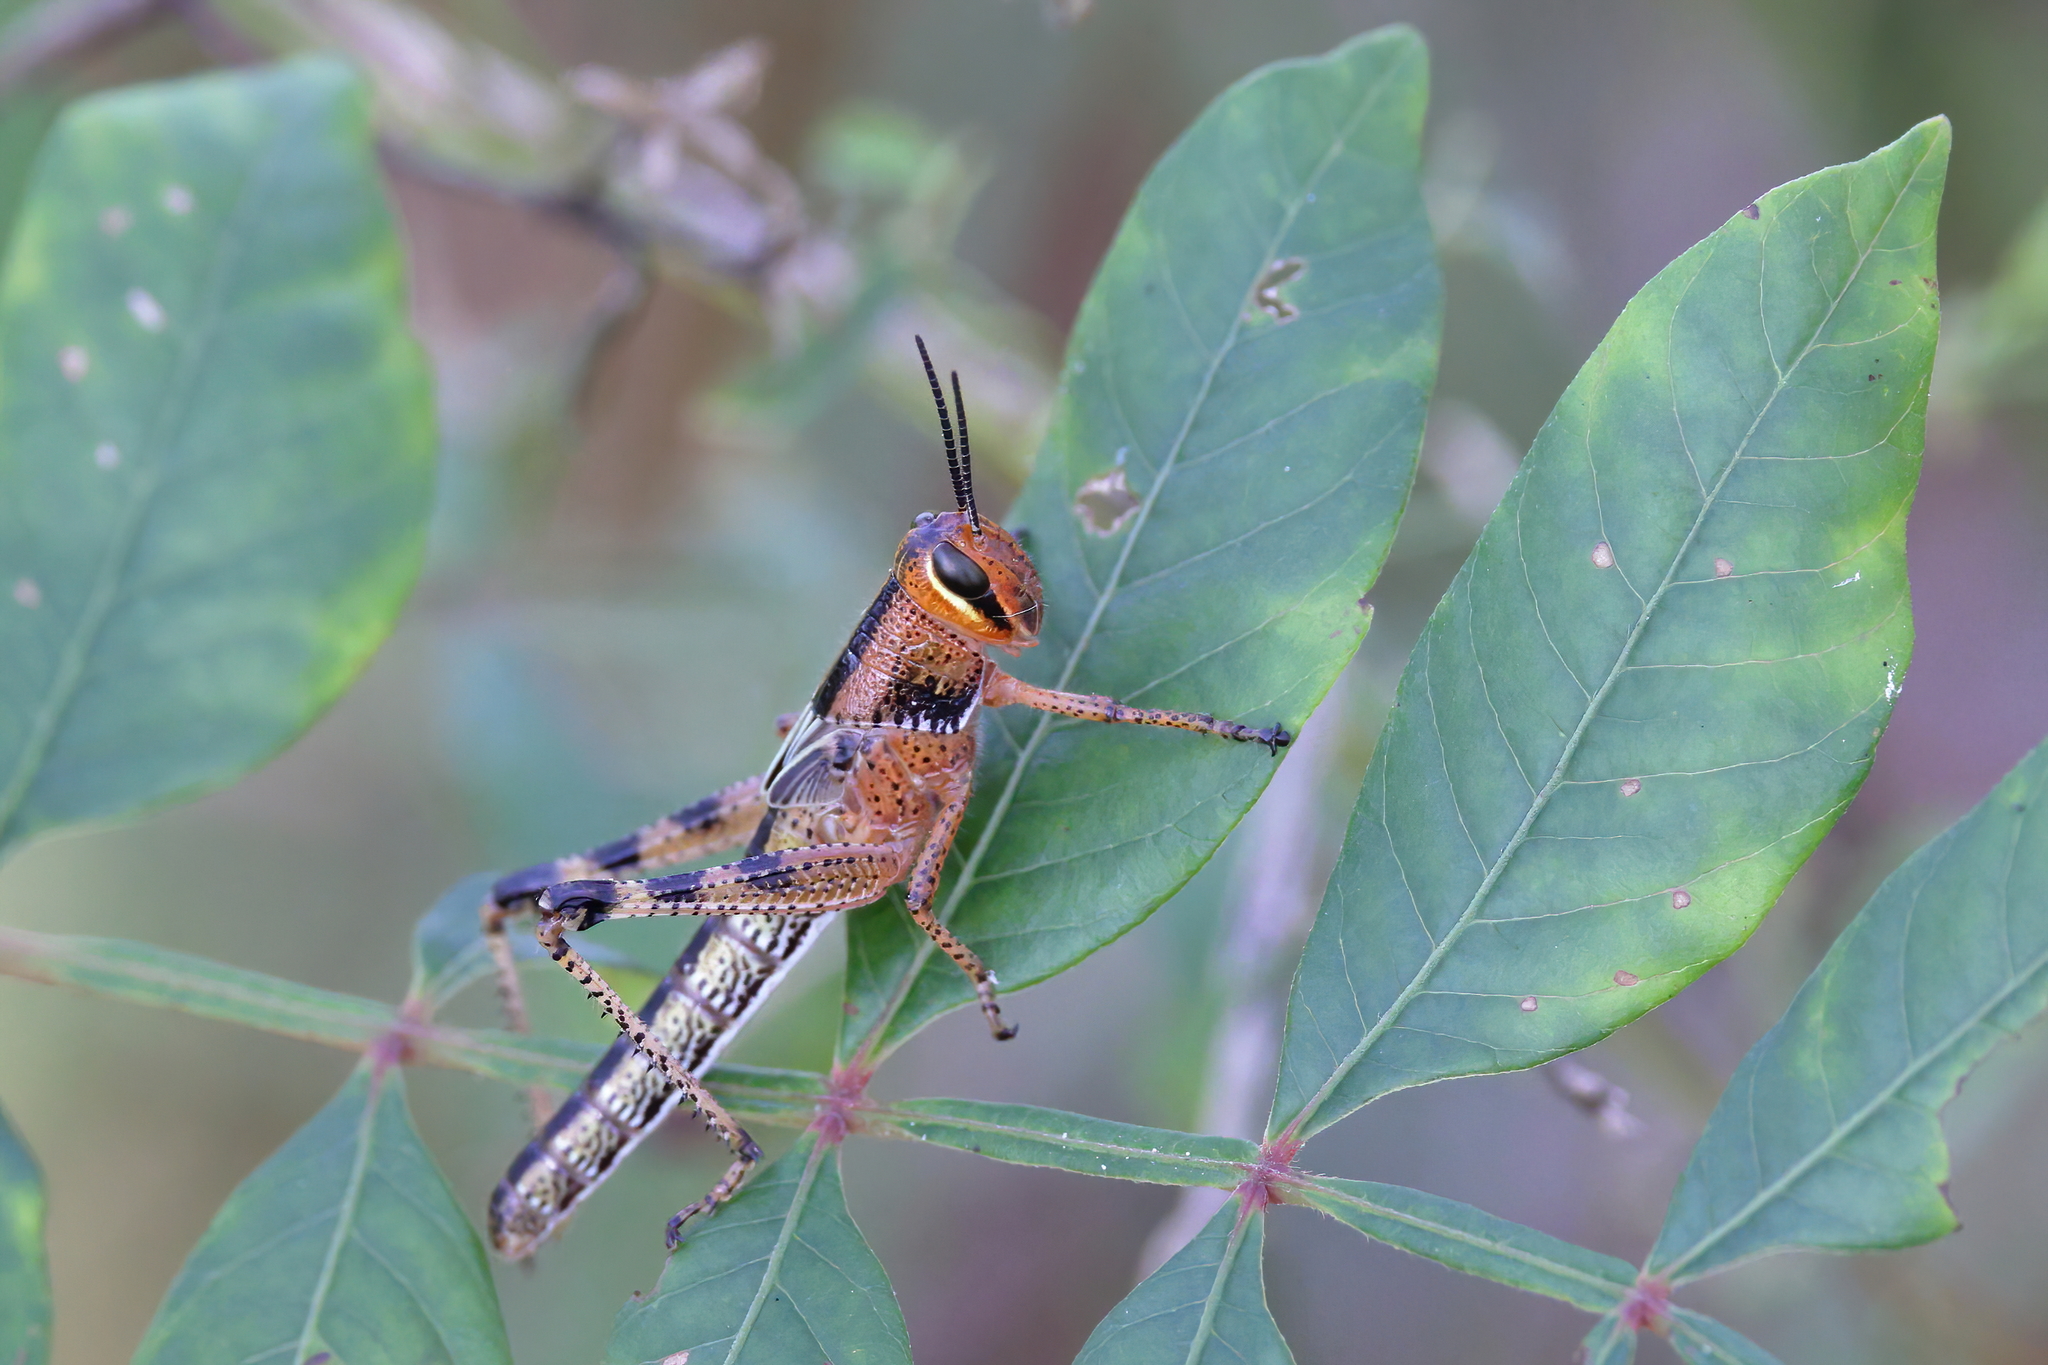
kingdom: Animalia
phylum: Arthropoda
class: Insecta
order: Orthoptera
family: Acrididae
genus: Schistocerca
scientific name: Schistocerca americana
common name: American bird locust
